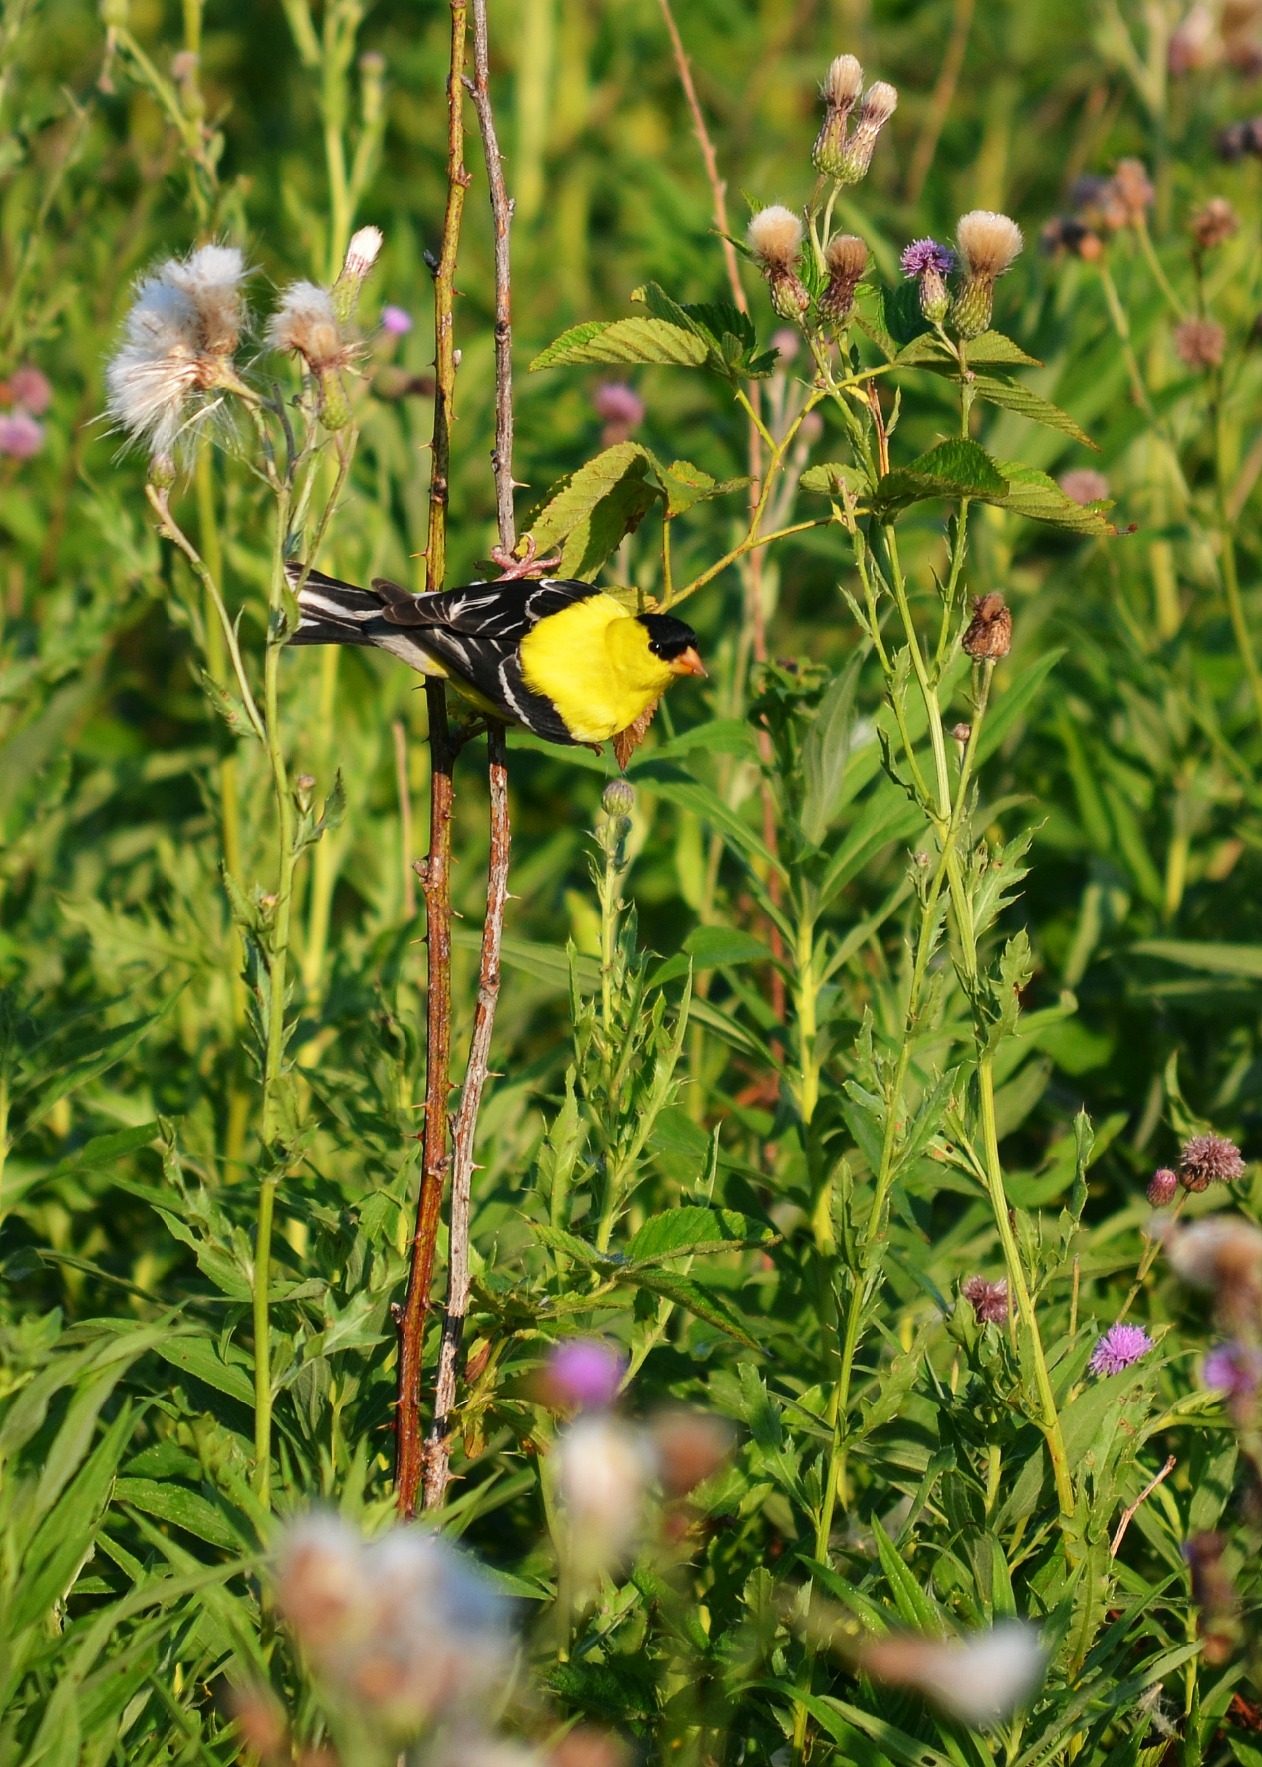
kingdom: Animalia
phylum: Chordata
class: Aves
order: Passeriformes
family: Fringillidae
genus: Spinus
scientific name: Spinus tristis
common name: American goldfinch
